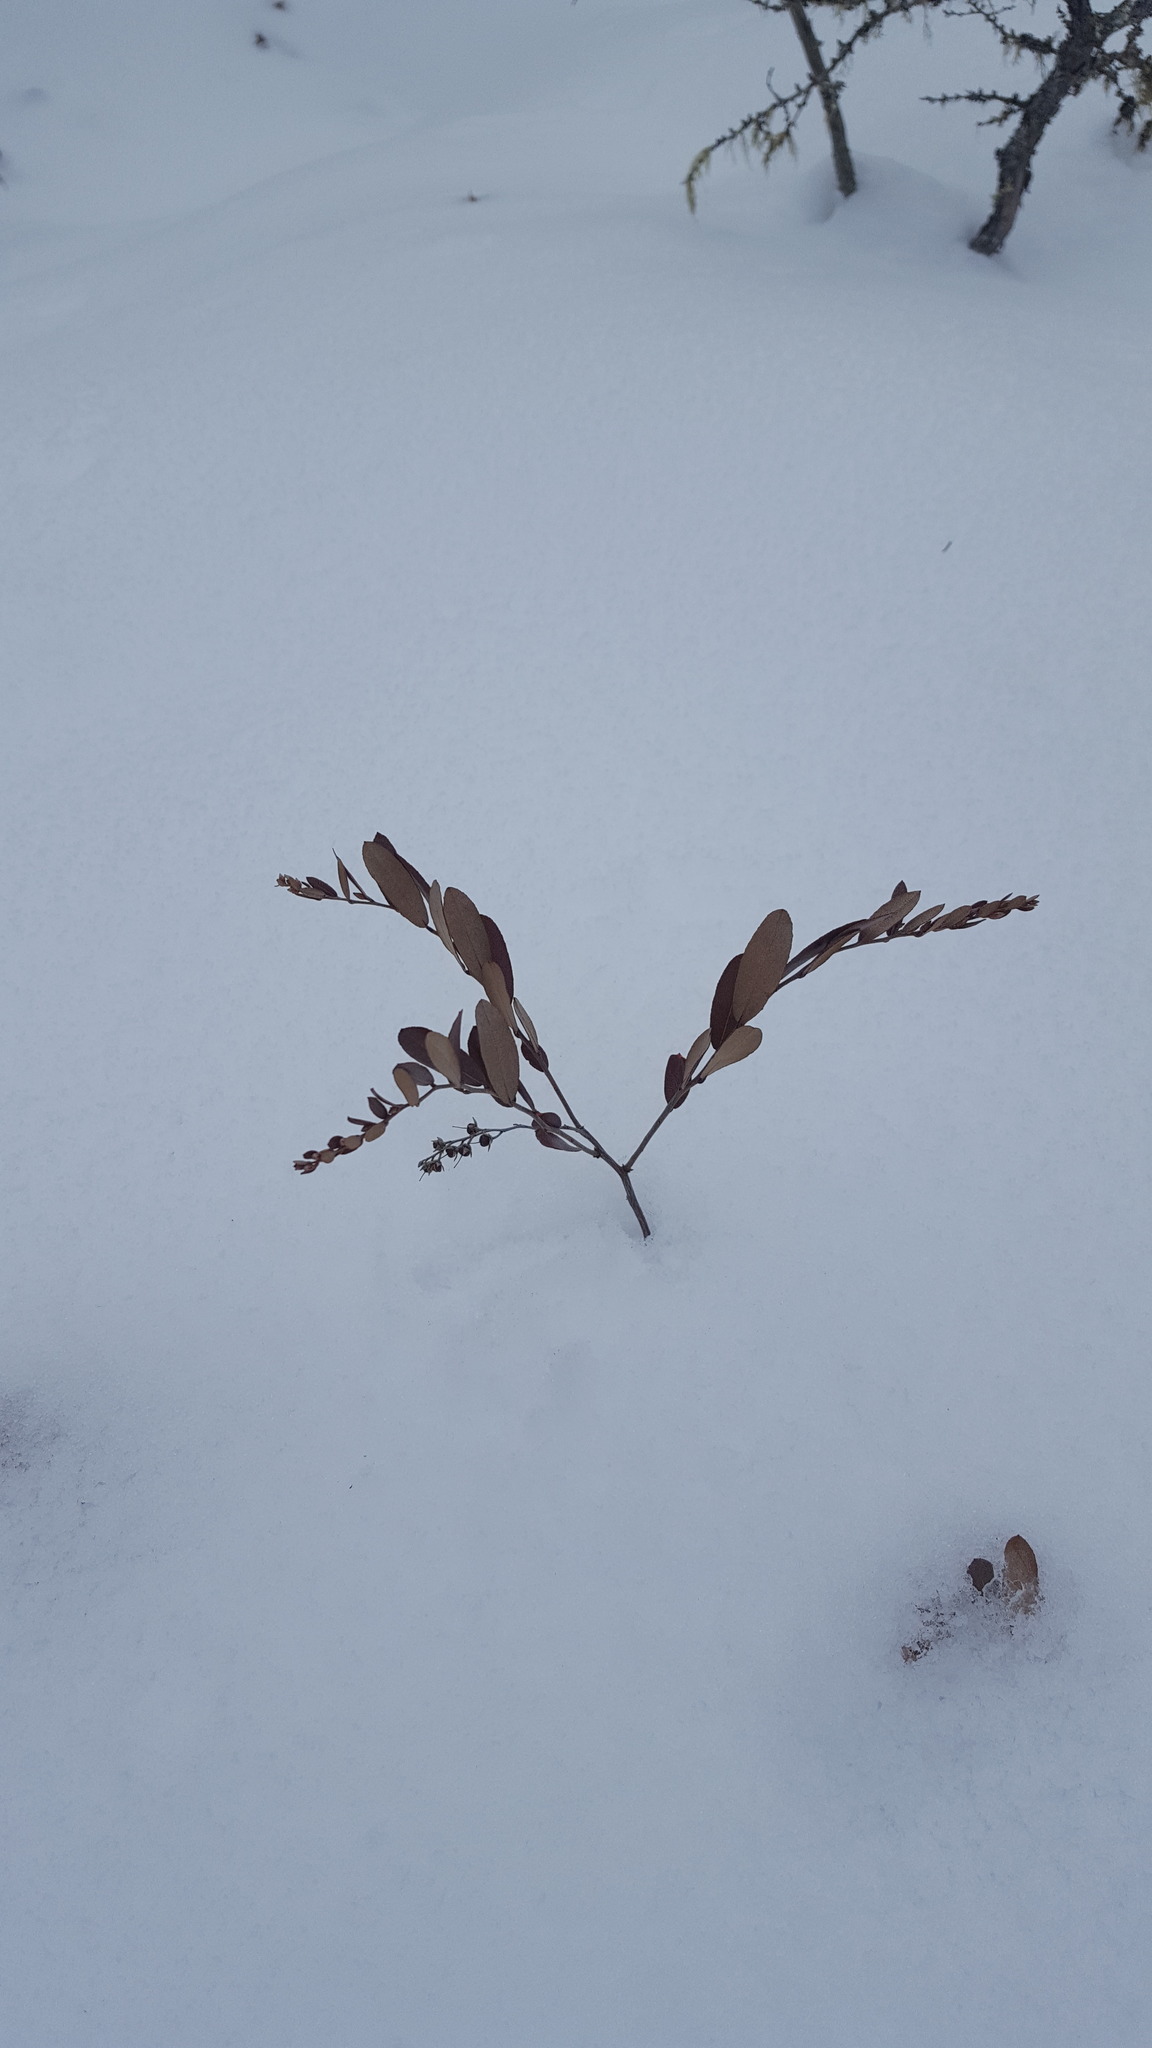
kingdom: Plantae
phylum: Tracheophyta
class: Magnoliopsida
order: Ericales
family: Ericaceae
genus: Chamaedaphne
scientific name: Chamaedaphne calyculata
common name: Leatherleaf
